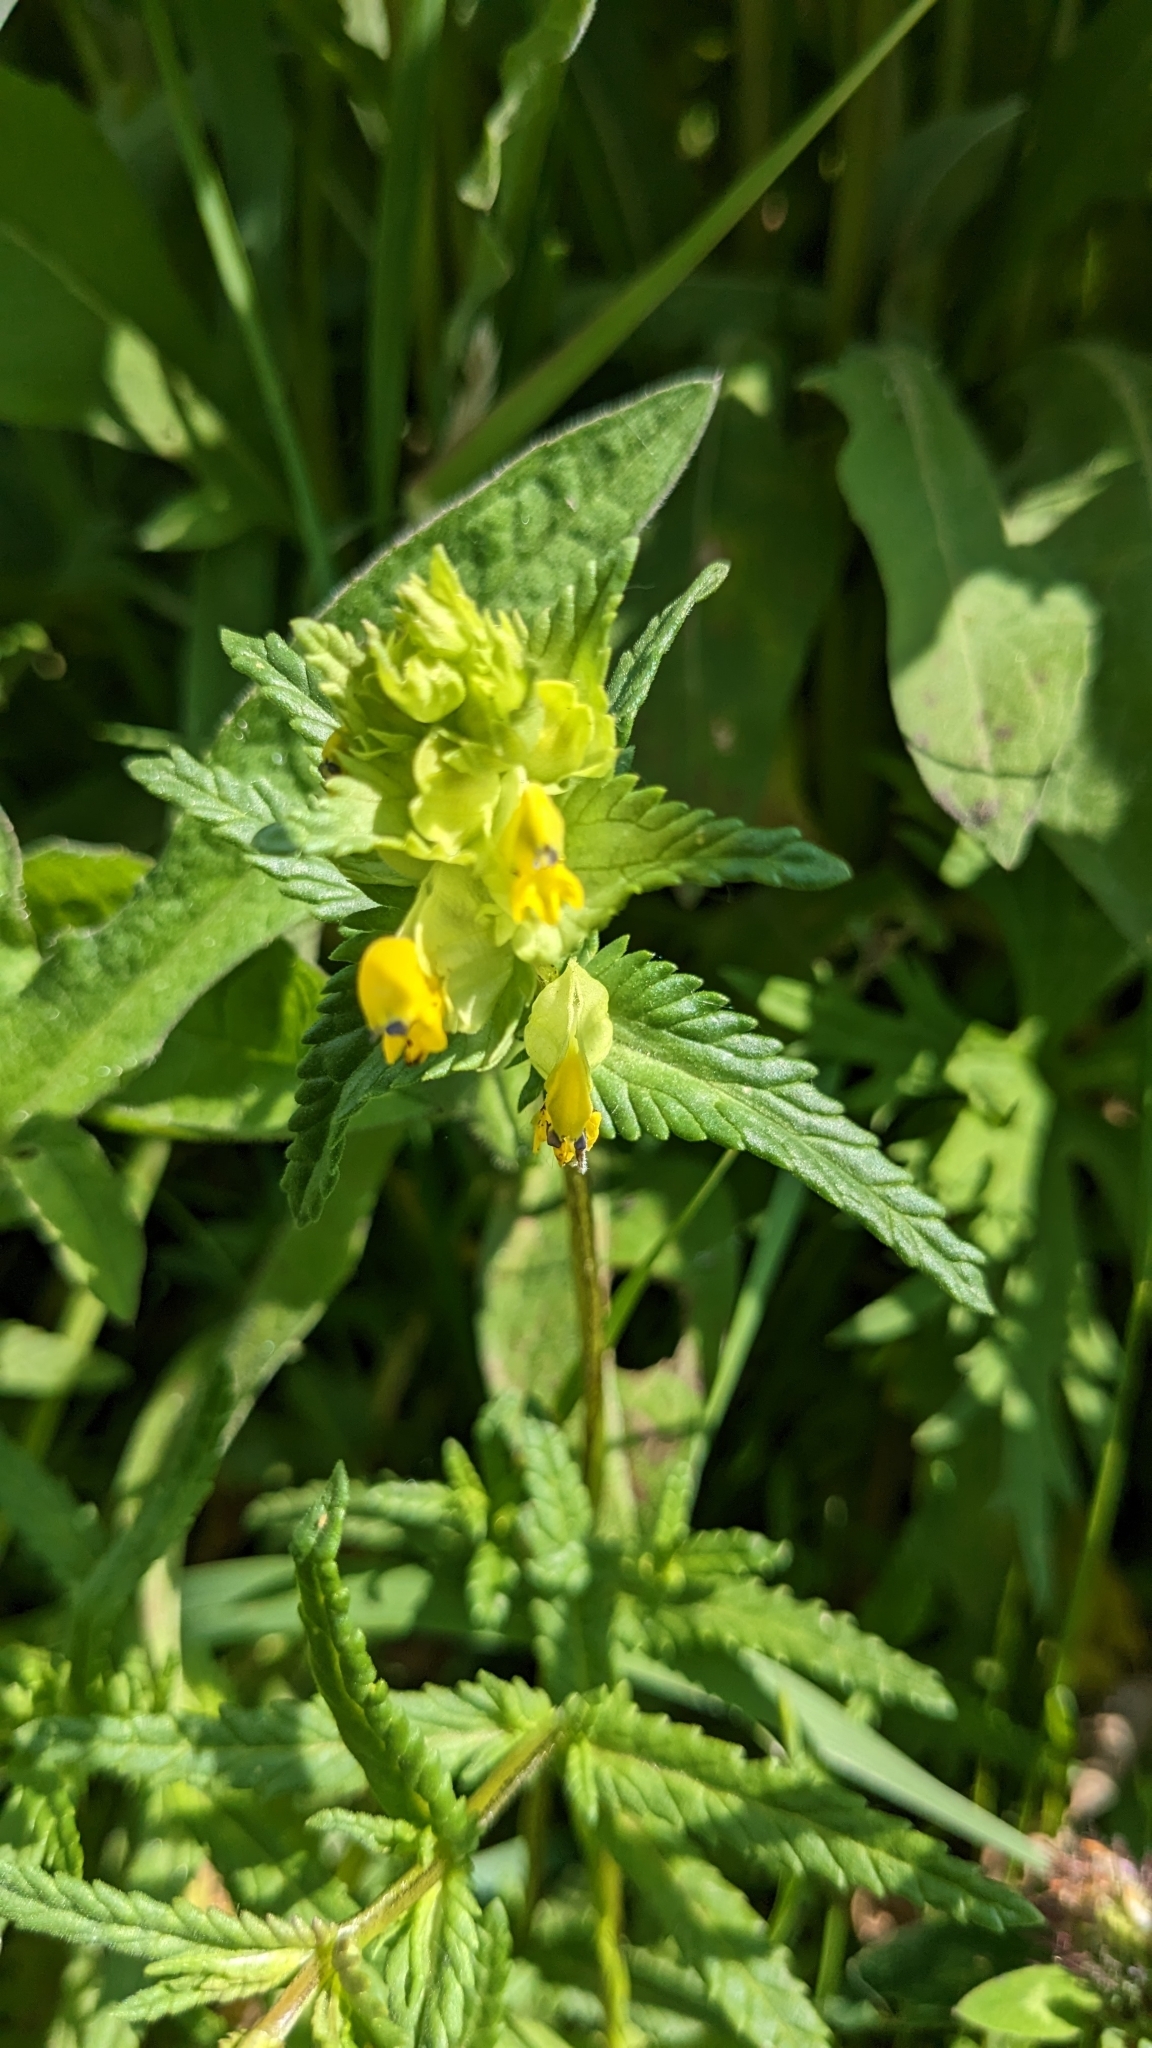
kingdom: Plantae
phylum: Tracheophyta
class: Magnoliopsida
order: Lamiales
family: Orobanchaceae
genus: Rhinanthus
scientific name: Rhinanthus minor
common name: Yellow-rattle
